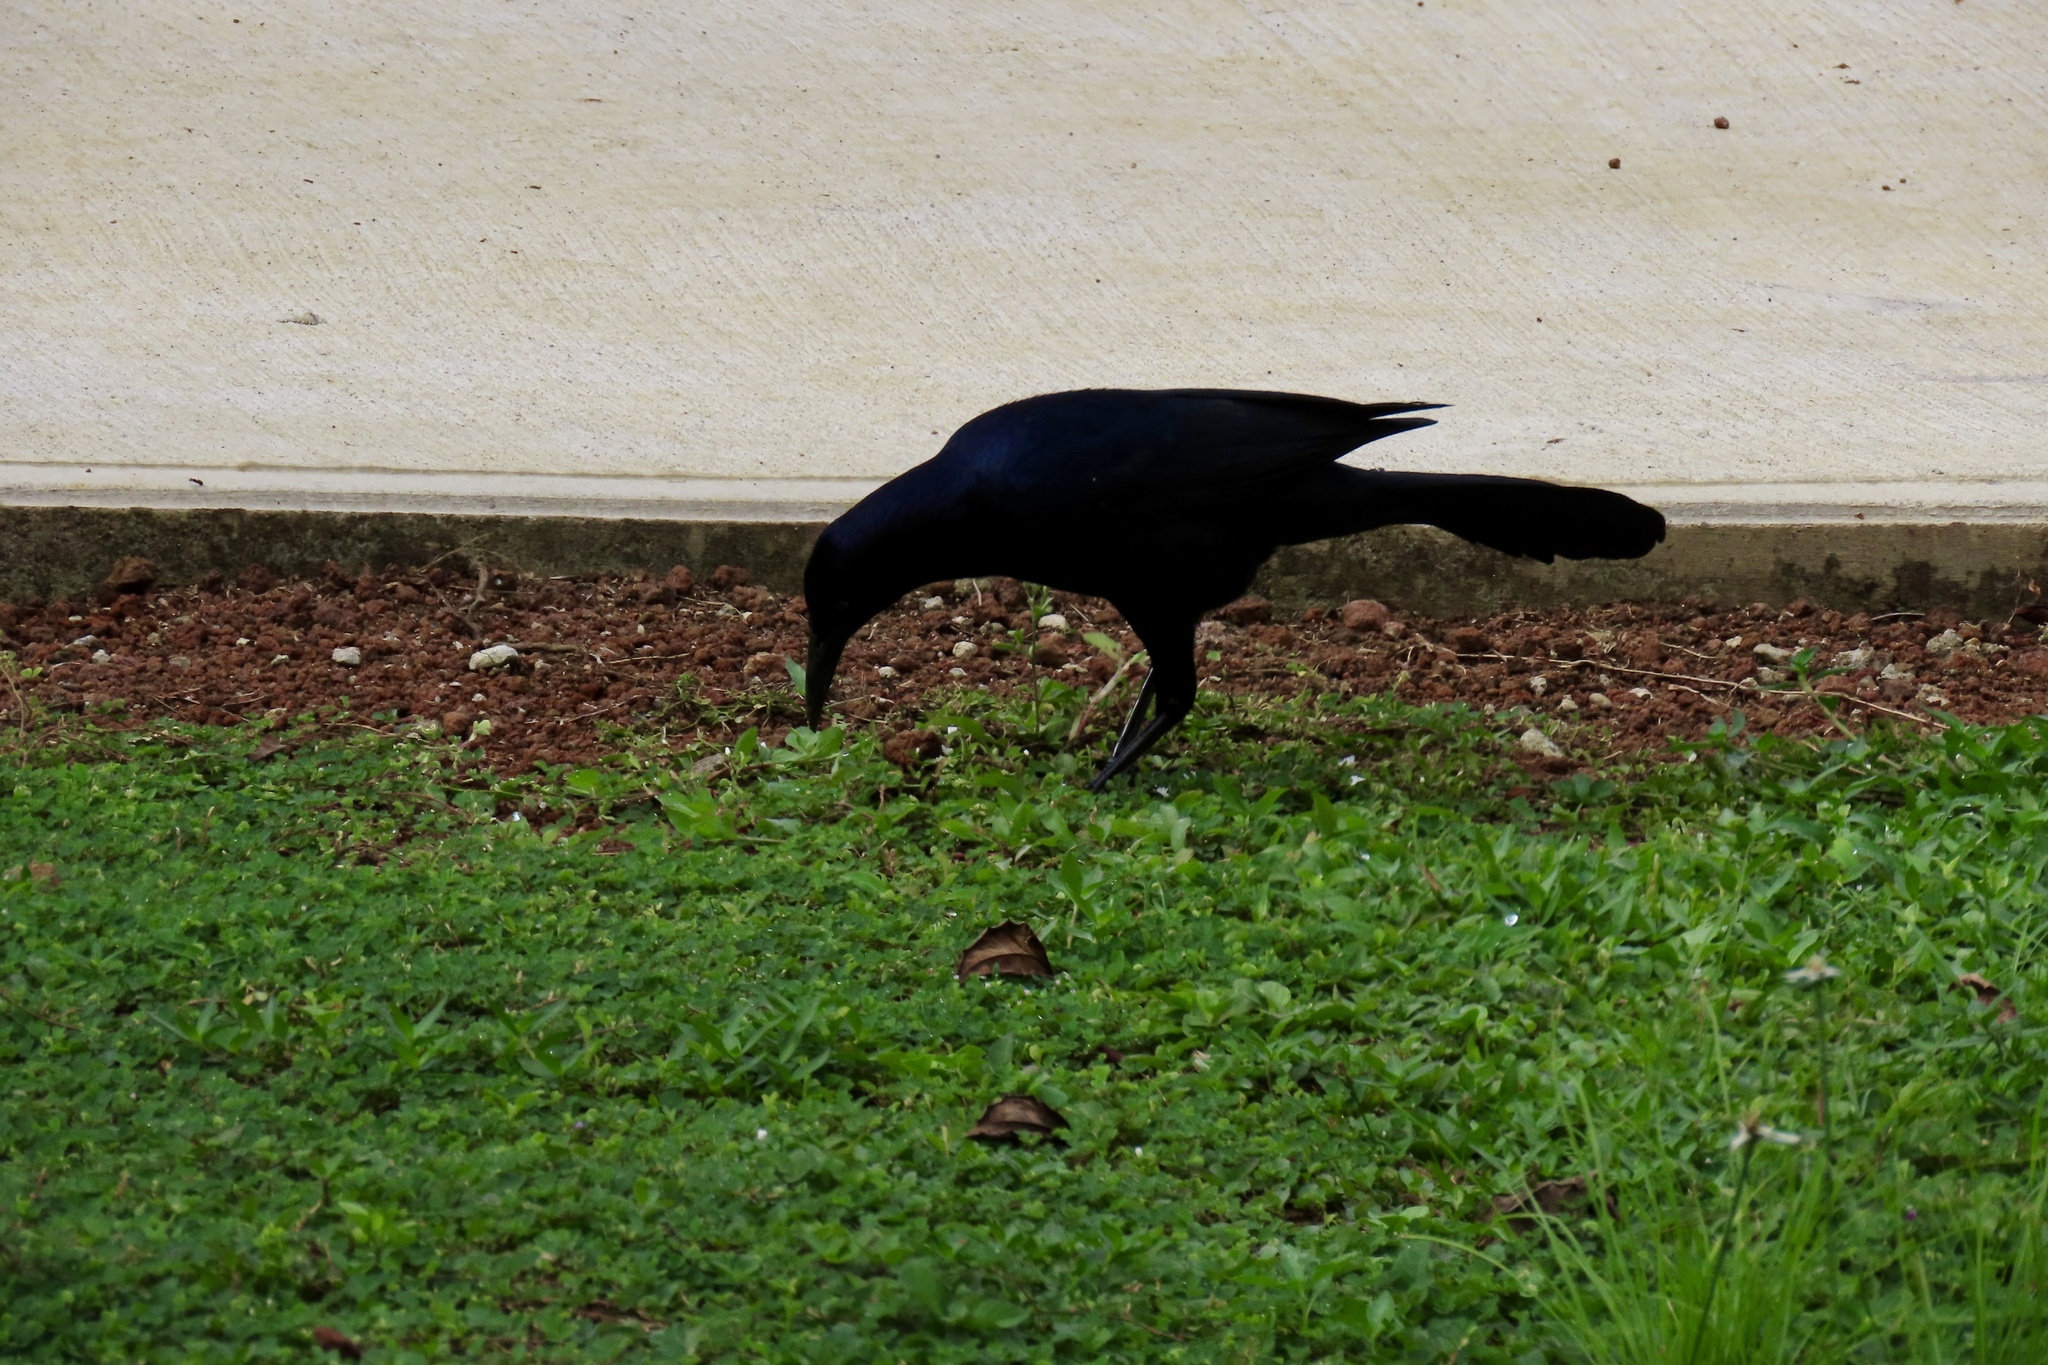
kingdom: Animalia
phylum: Chordata
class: Aves
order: Passeriformes
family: Icteridae
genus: Quiscalus
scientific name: Quiscalus mexicanus
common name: Great-tailed grackle
